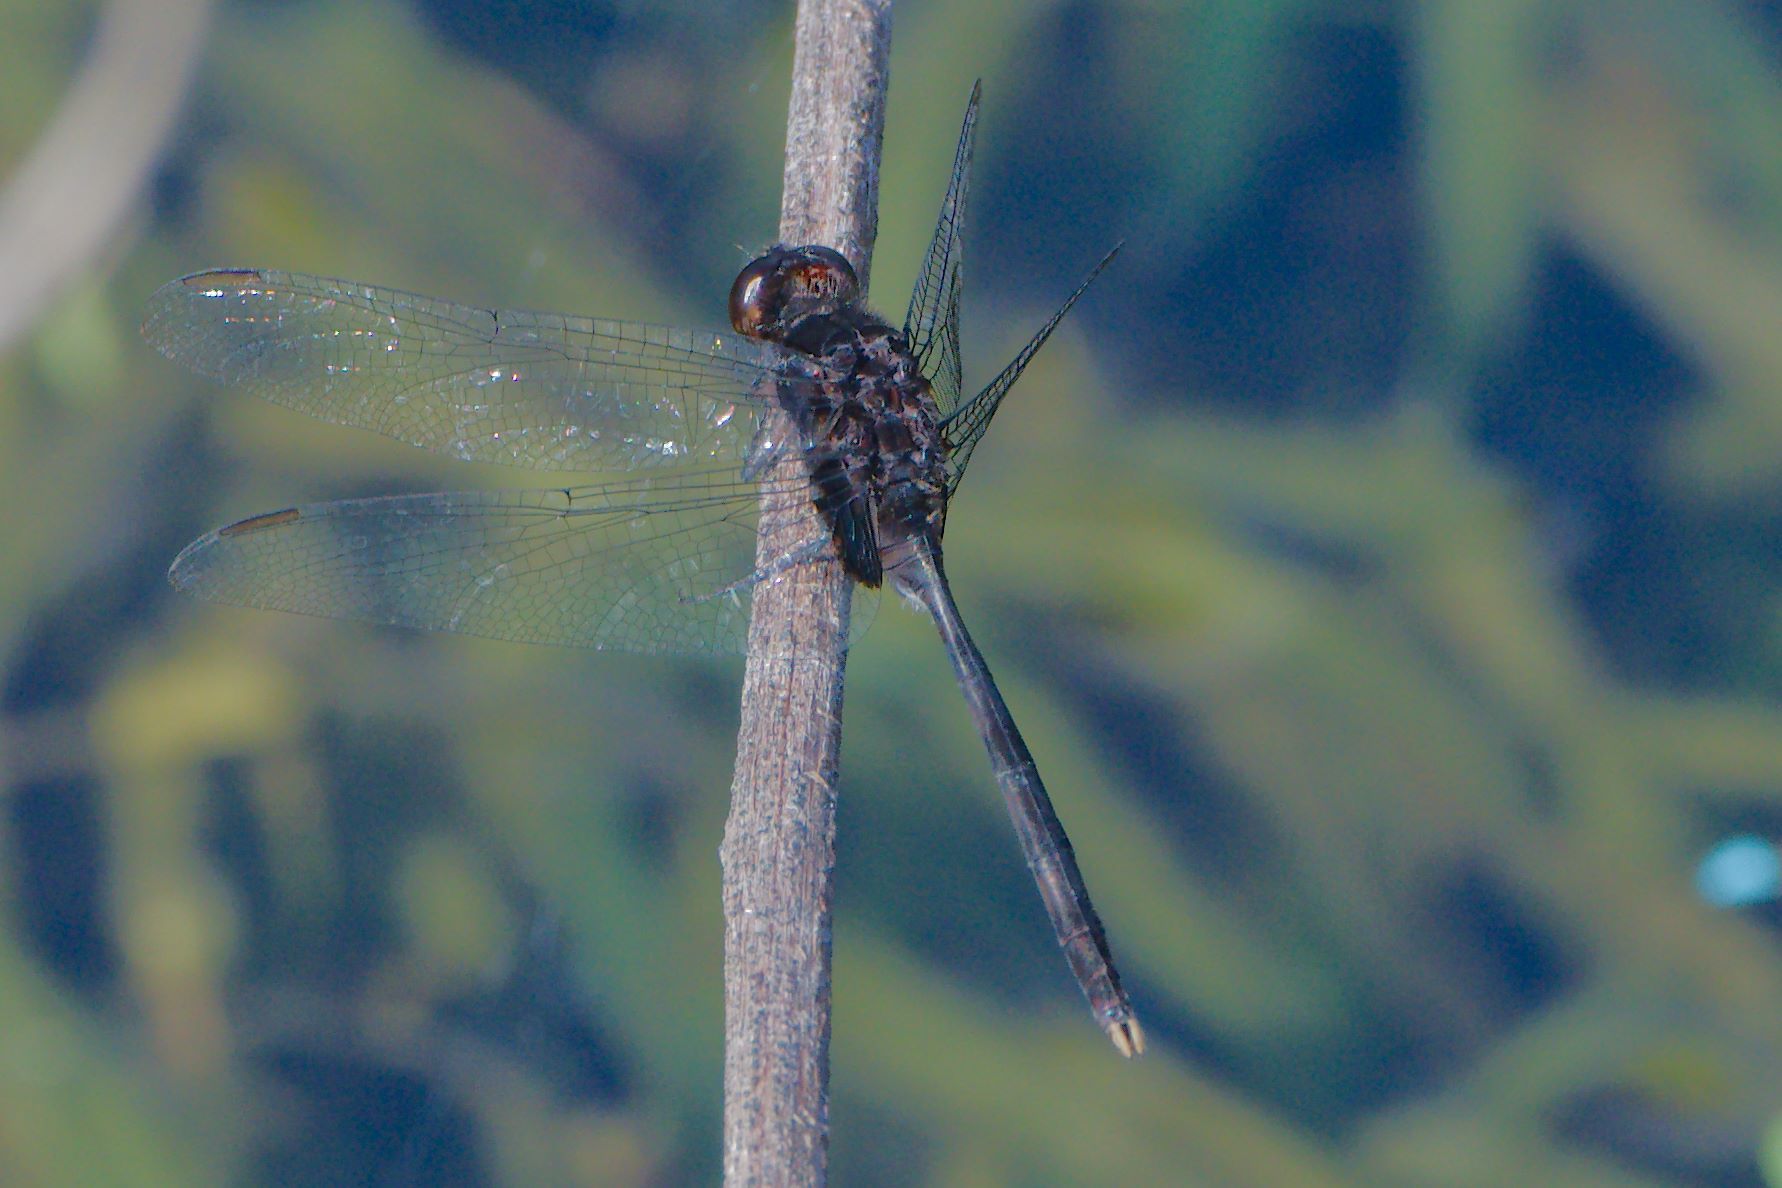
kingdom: Animalia
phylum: Arthropoda
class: Insecta
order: Odonata
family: Libellulidae
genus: Erythemis
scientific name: Erythemis plebeja
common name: Pin-tailed pondhawk
